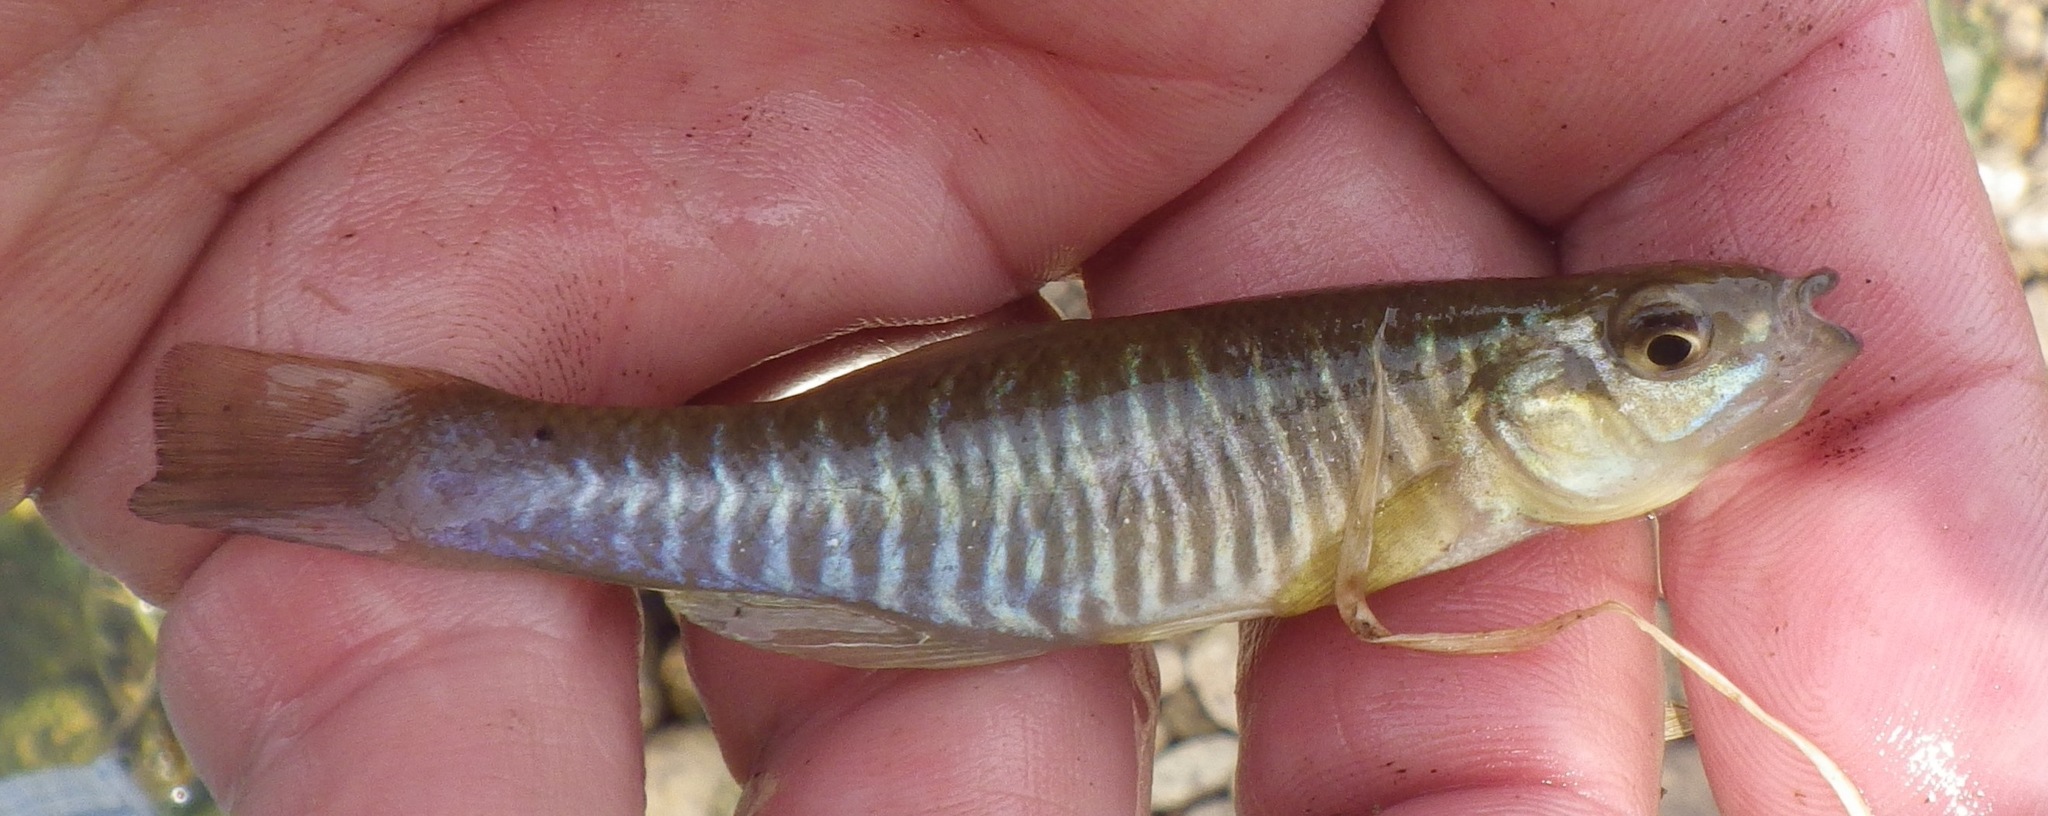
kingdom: Animalia
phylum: Chordata
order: Cyprinodontiformes
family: Fundulidae
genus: Fundulus
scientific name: Fundulus diaphanus
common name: Banded killifish
